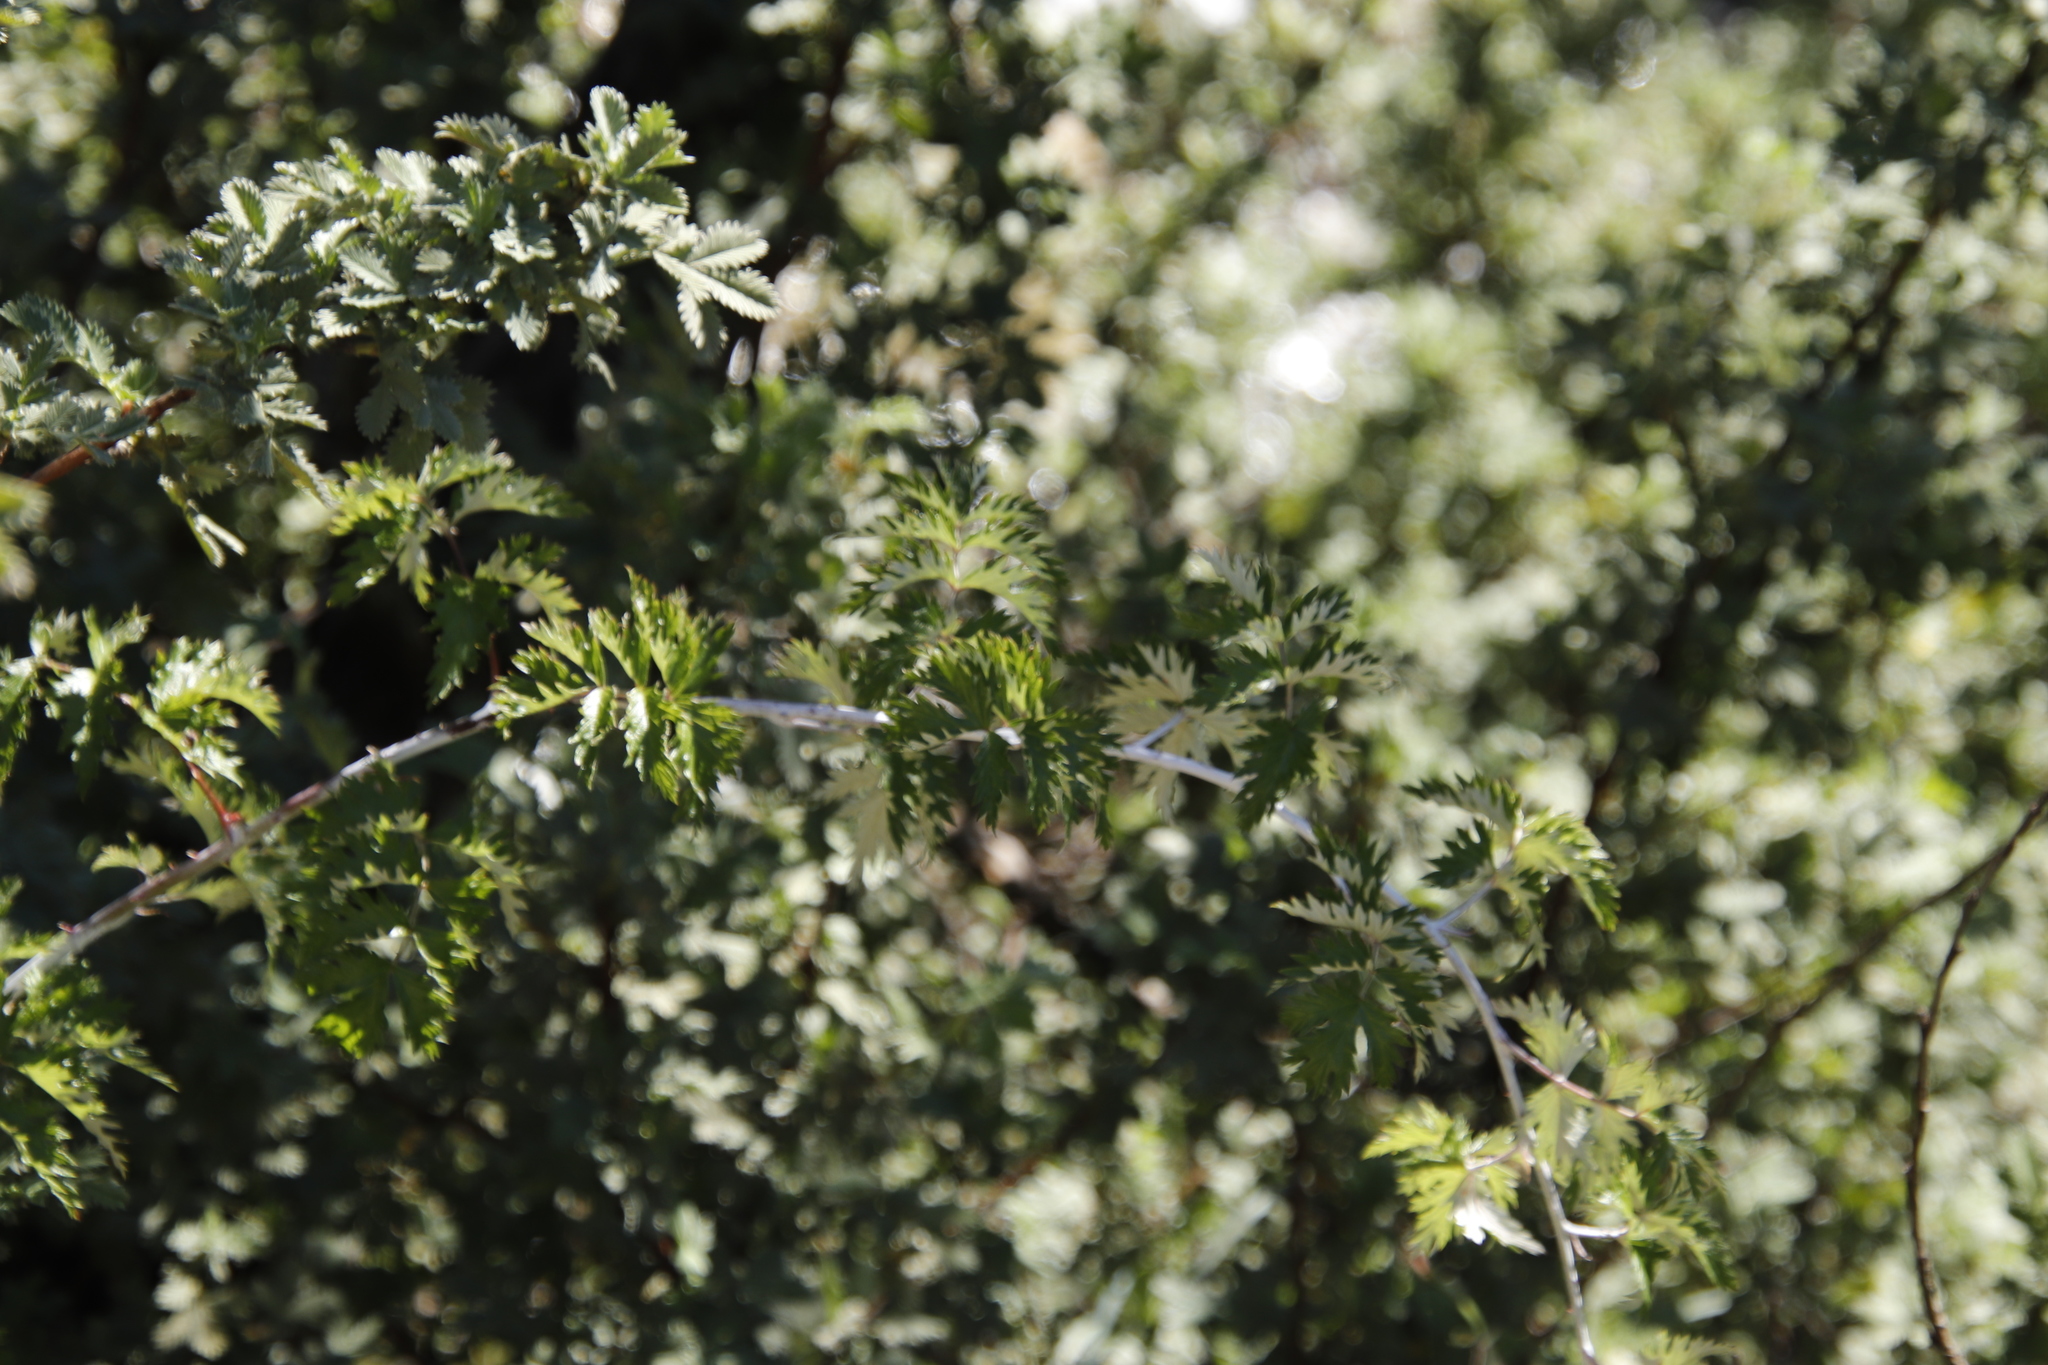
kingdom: Plantae
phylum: Tracheophyta
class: Magnoliopsida
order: Rosales
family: Rosaceae
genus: Rubus
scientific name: Rubus ludwigii
